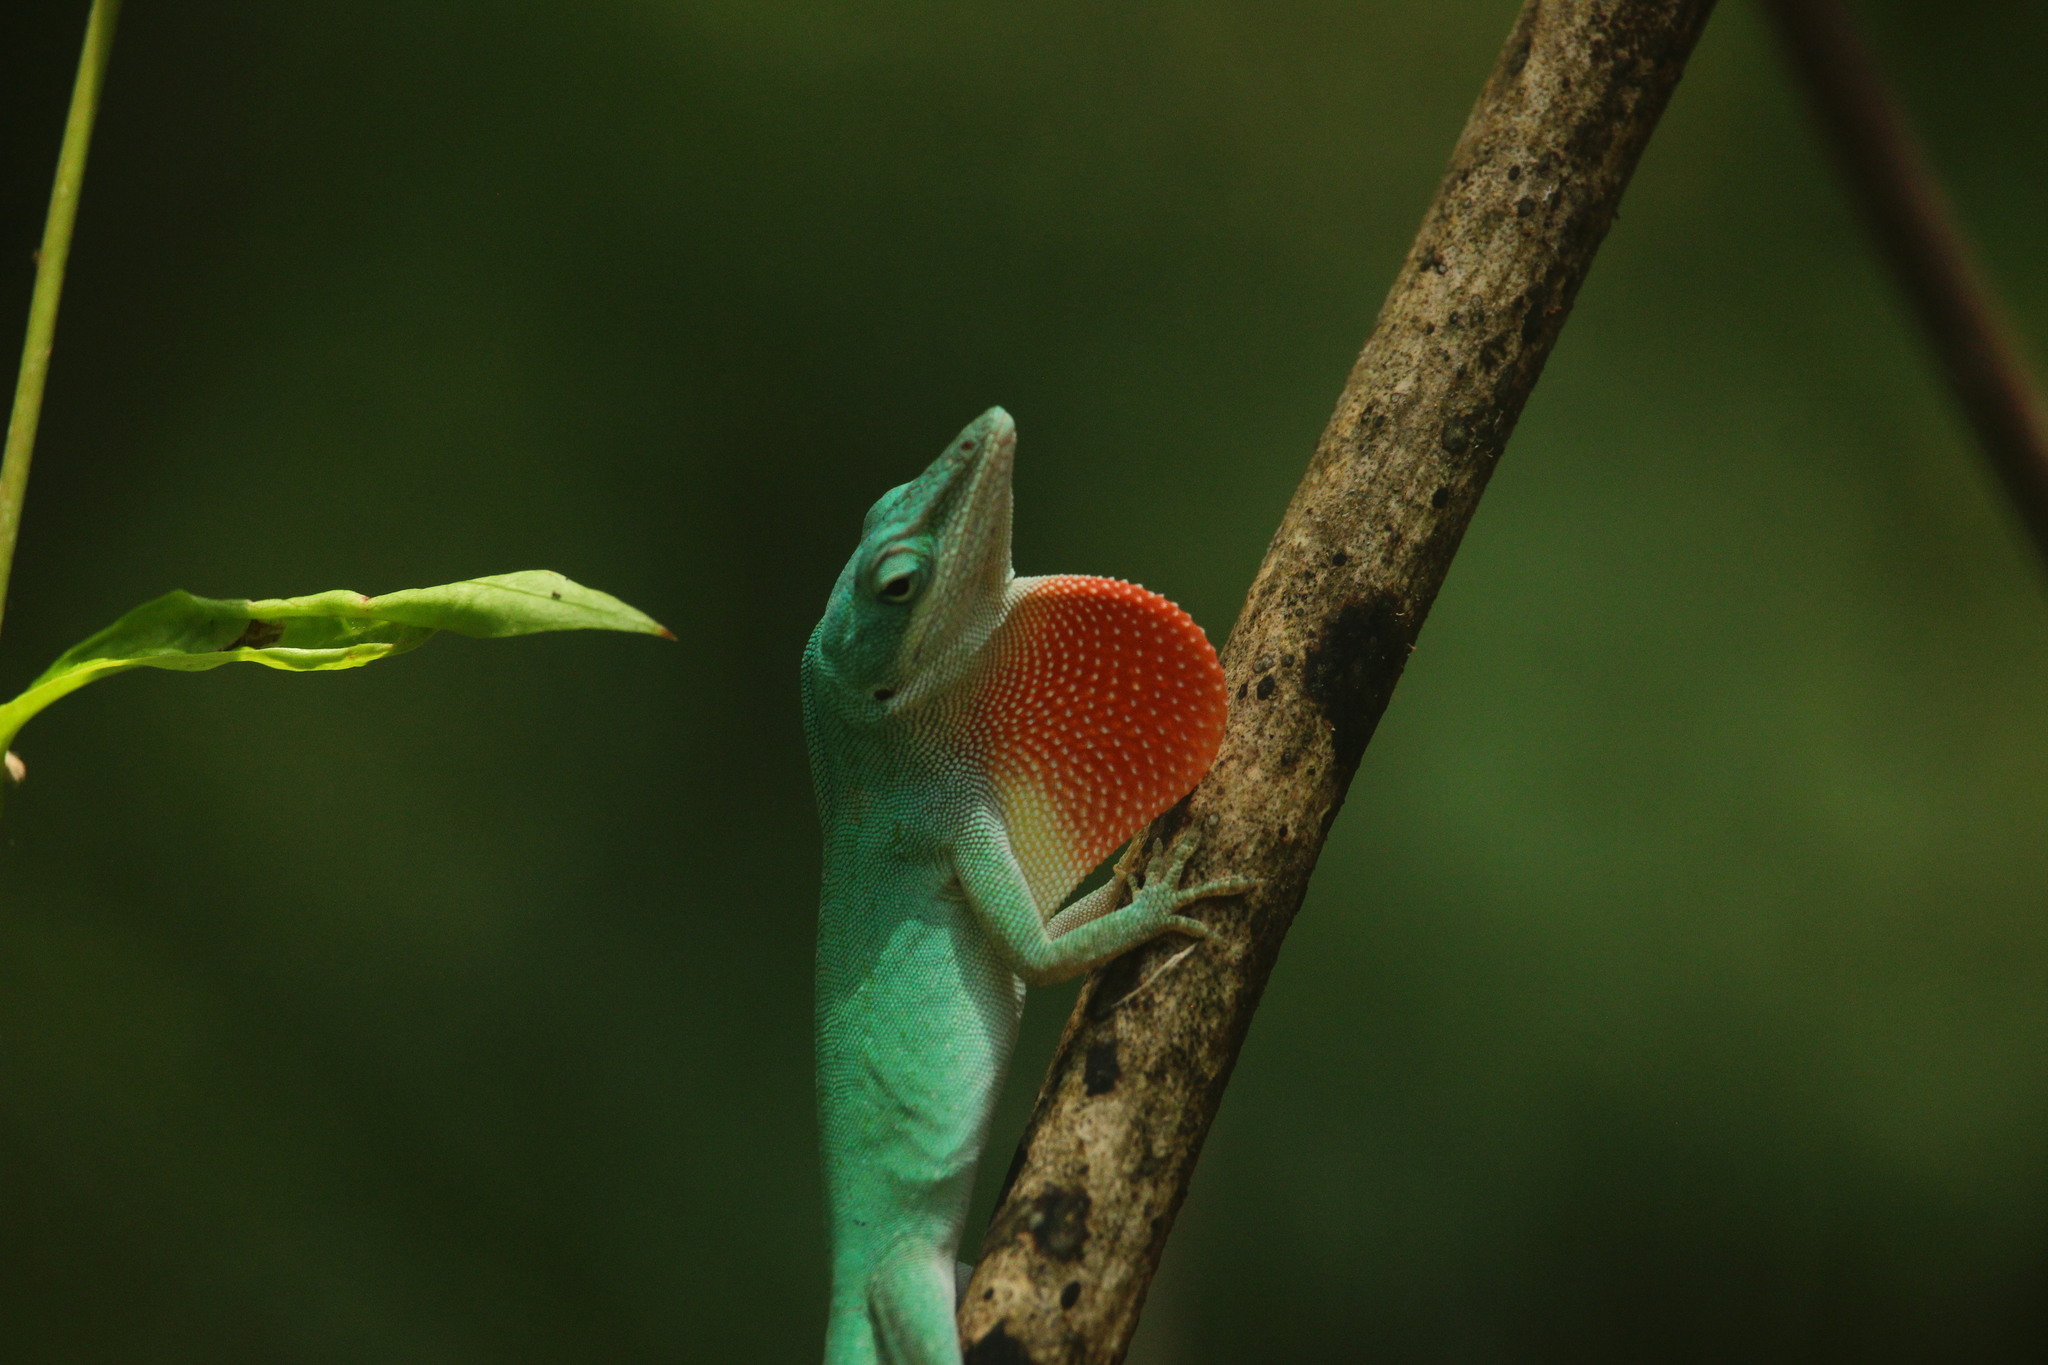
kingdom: Animalia
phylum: Chordata
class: Squamata
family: Dactyloidae
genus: Anolis
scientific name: Anolis carolinensis
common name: Green anole
